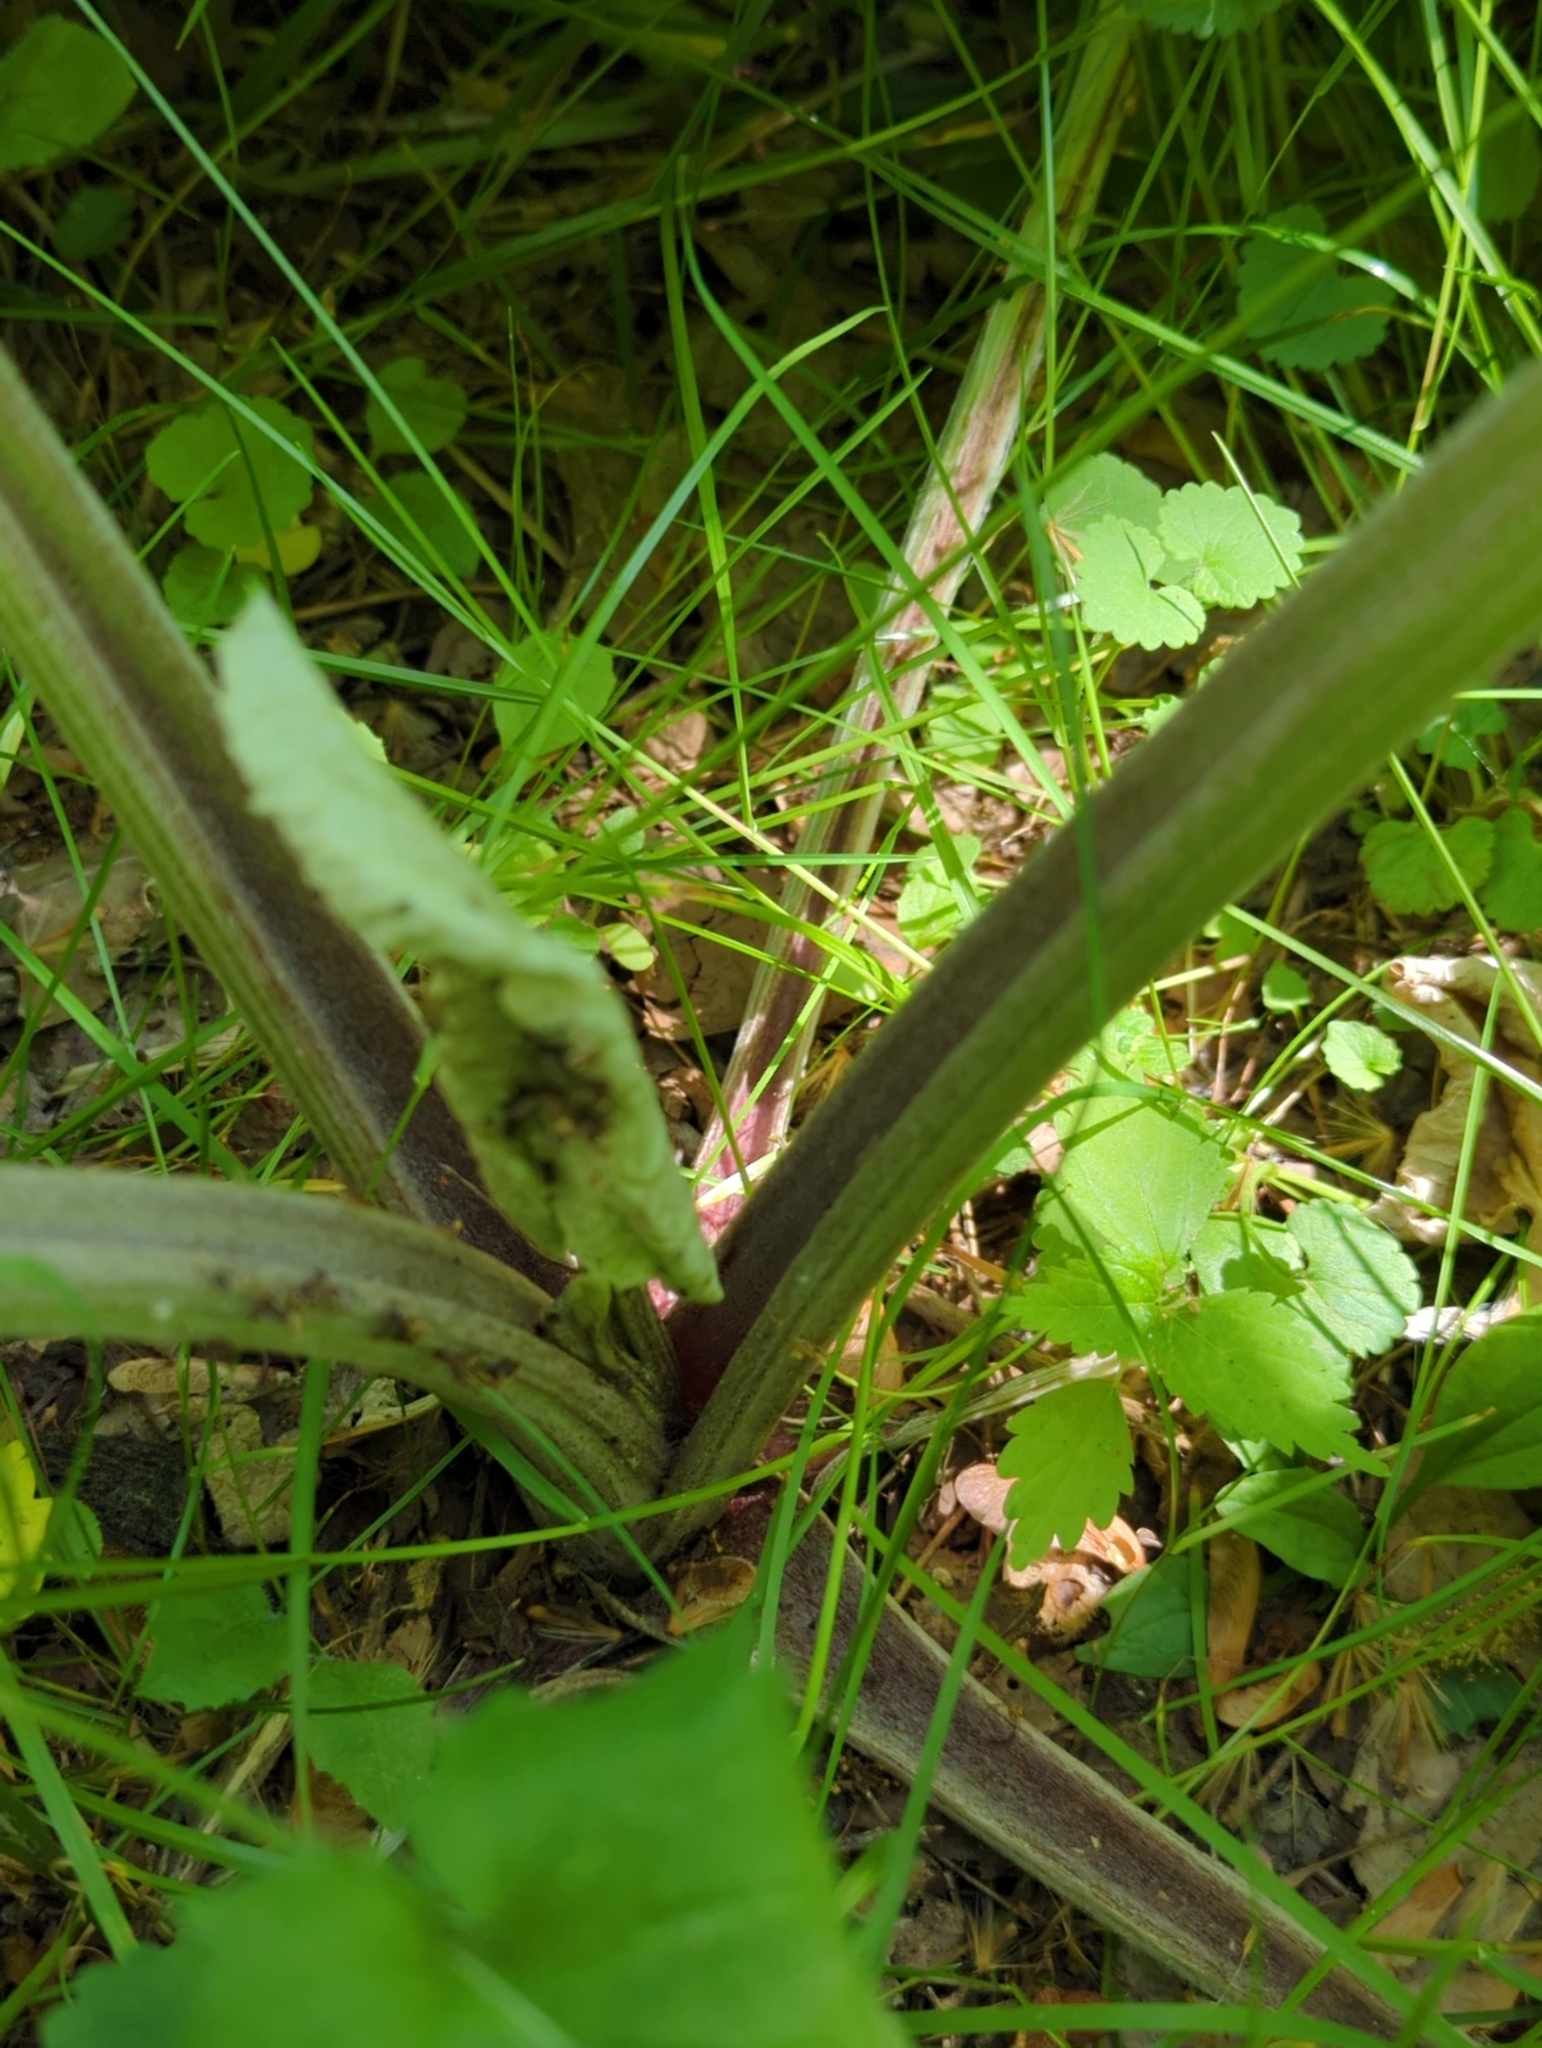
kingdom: Plantae
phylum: Tracheophyta
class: Magnoliopsida
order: Asterales
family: Asteraceae
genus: Arctium
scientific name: Arctium
